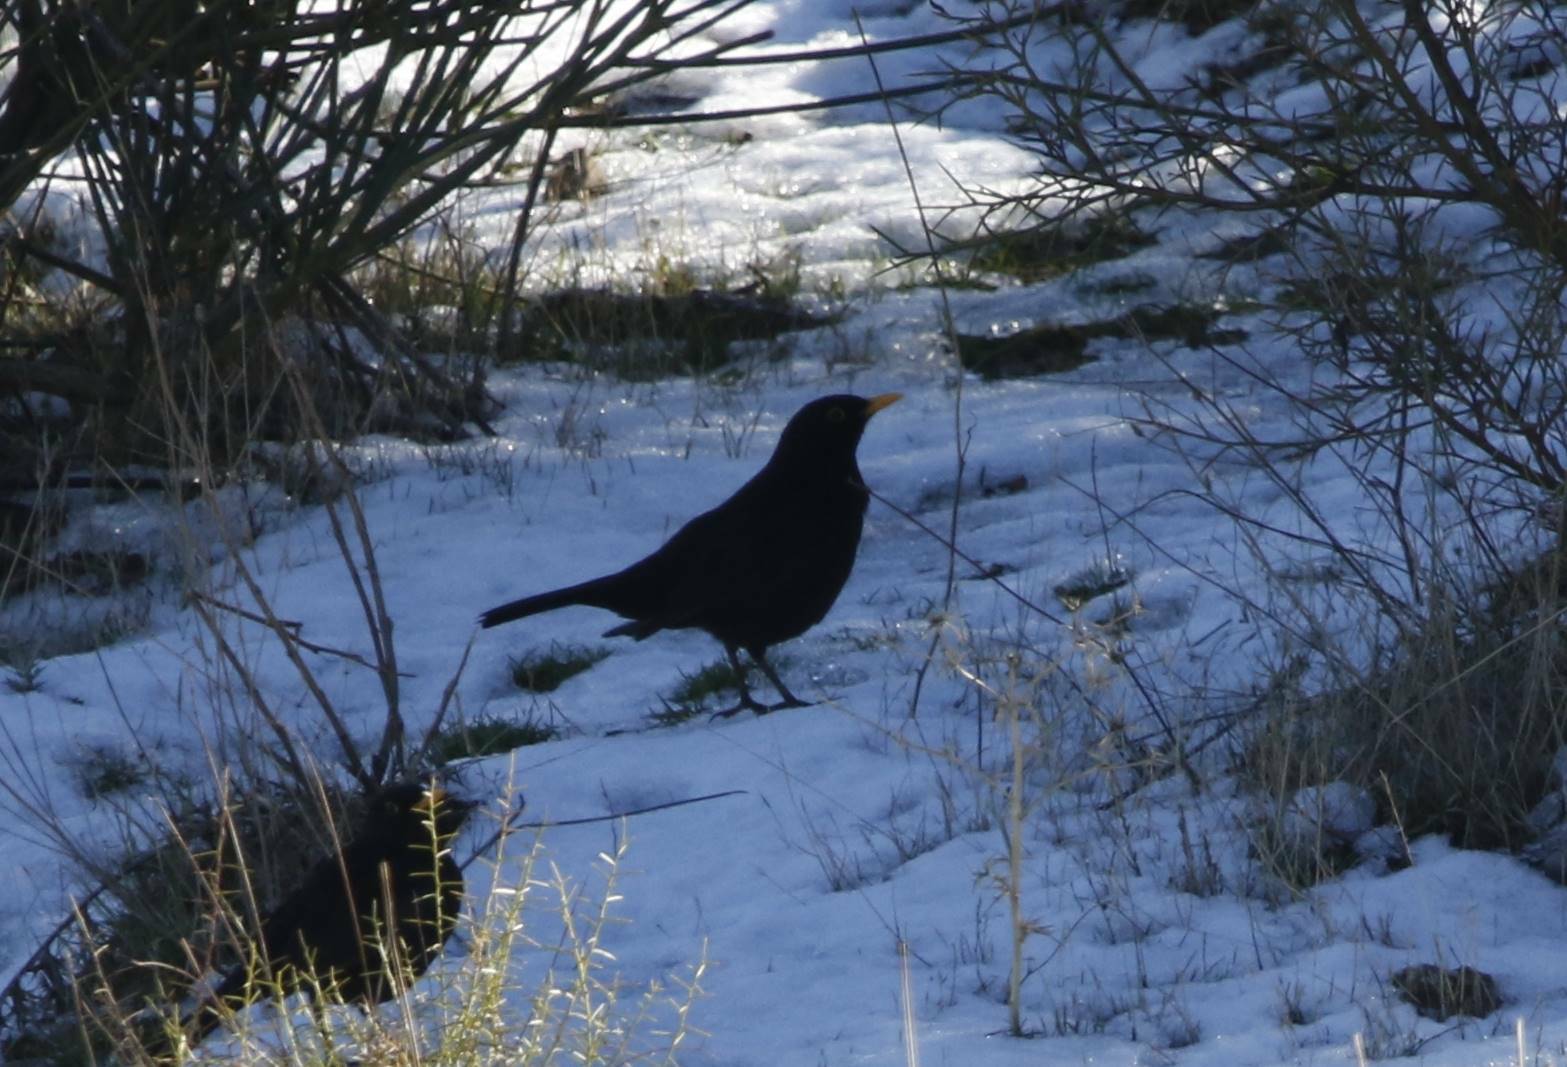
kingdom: Animalia
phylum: Chordata
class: Aves
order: Passeriformes
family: Turdidae
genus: Turdus
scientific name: Turdus merula
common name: Common blackbird
